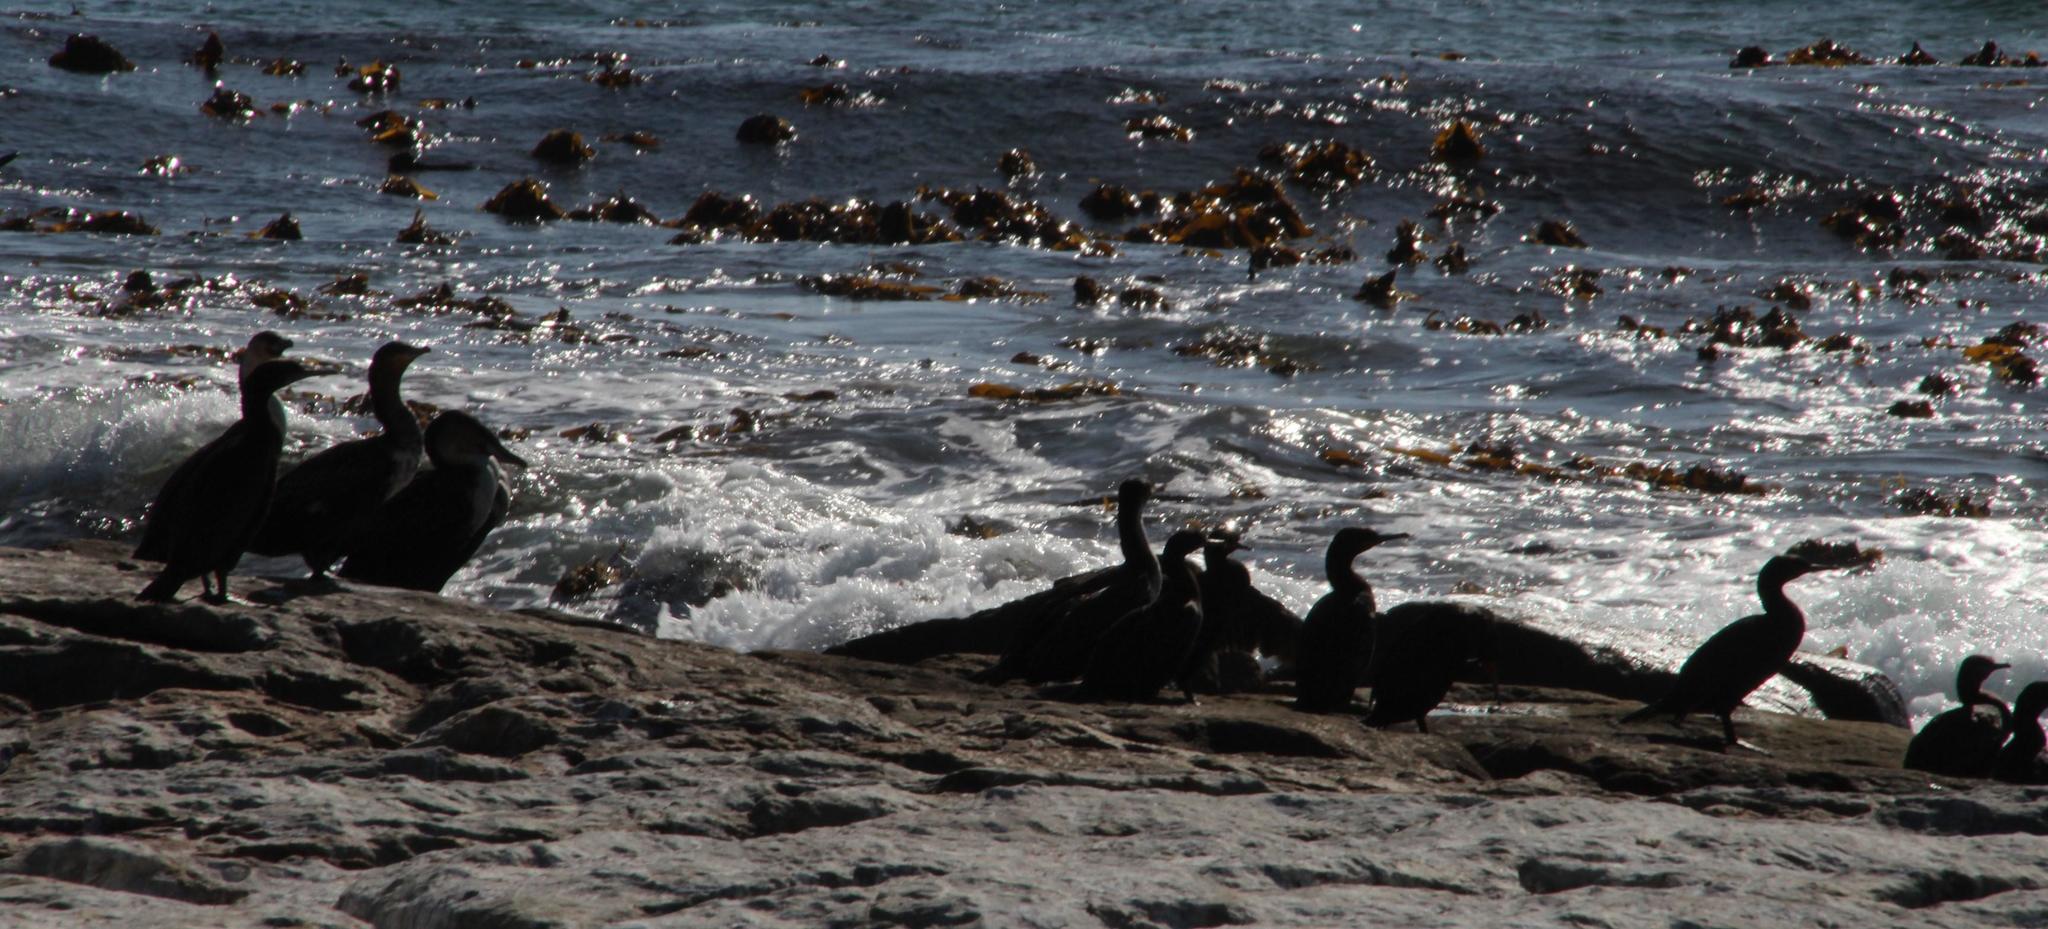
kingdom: Animalia
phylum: Chordata
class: Aves
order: Suliformes
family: Phalacrocoracidae
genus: Phalacrocorax
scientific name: Phalacrocorax capensis
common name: Cape cormorant
